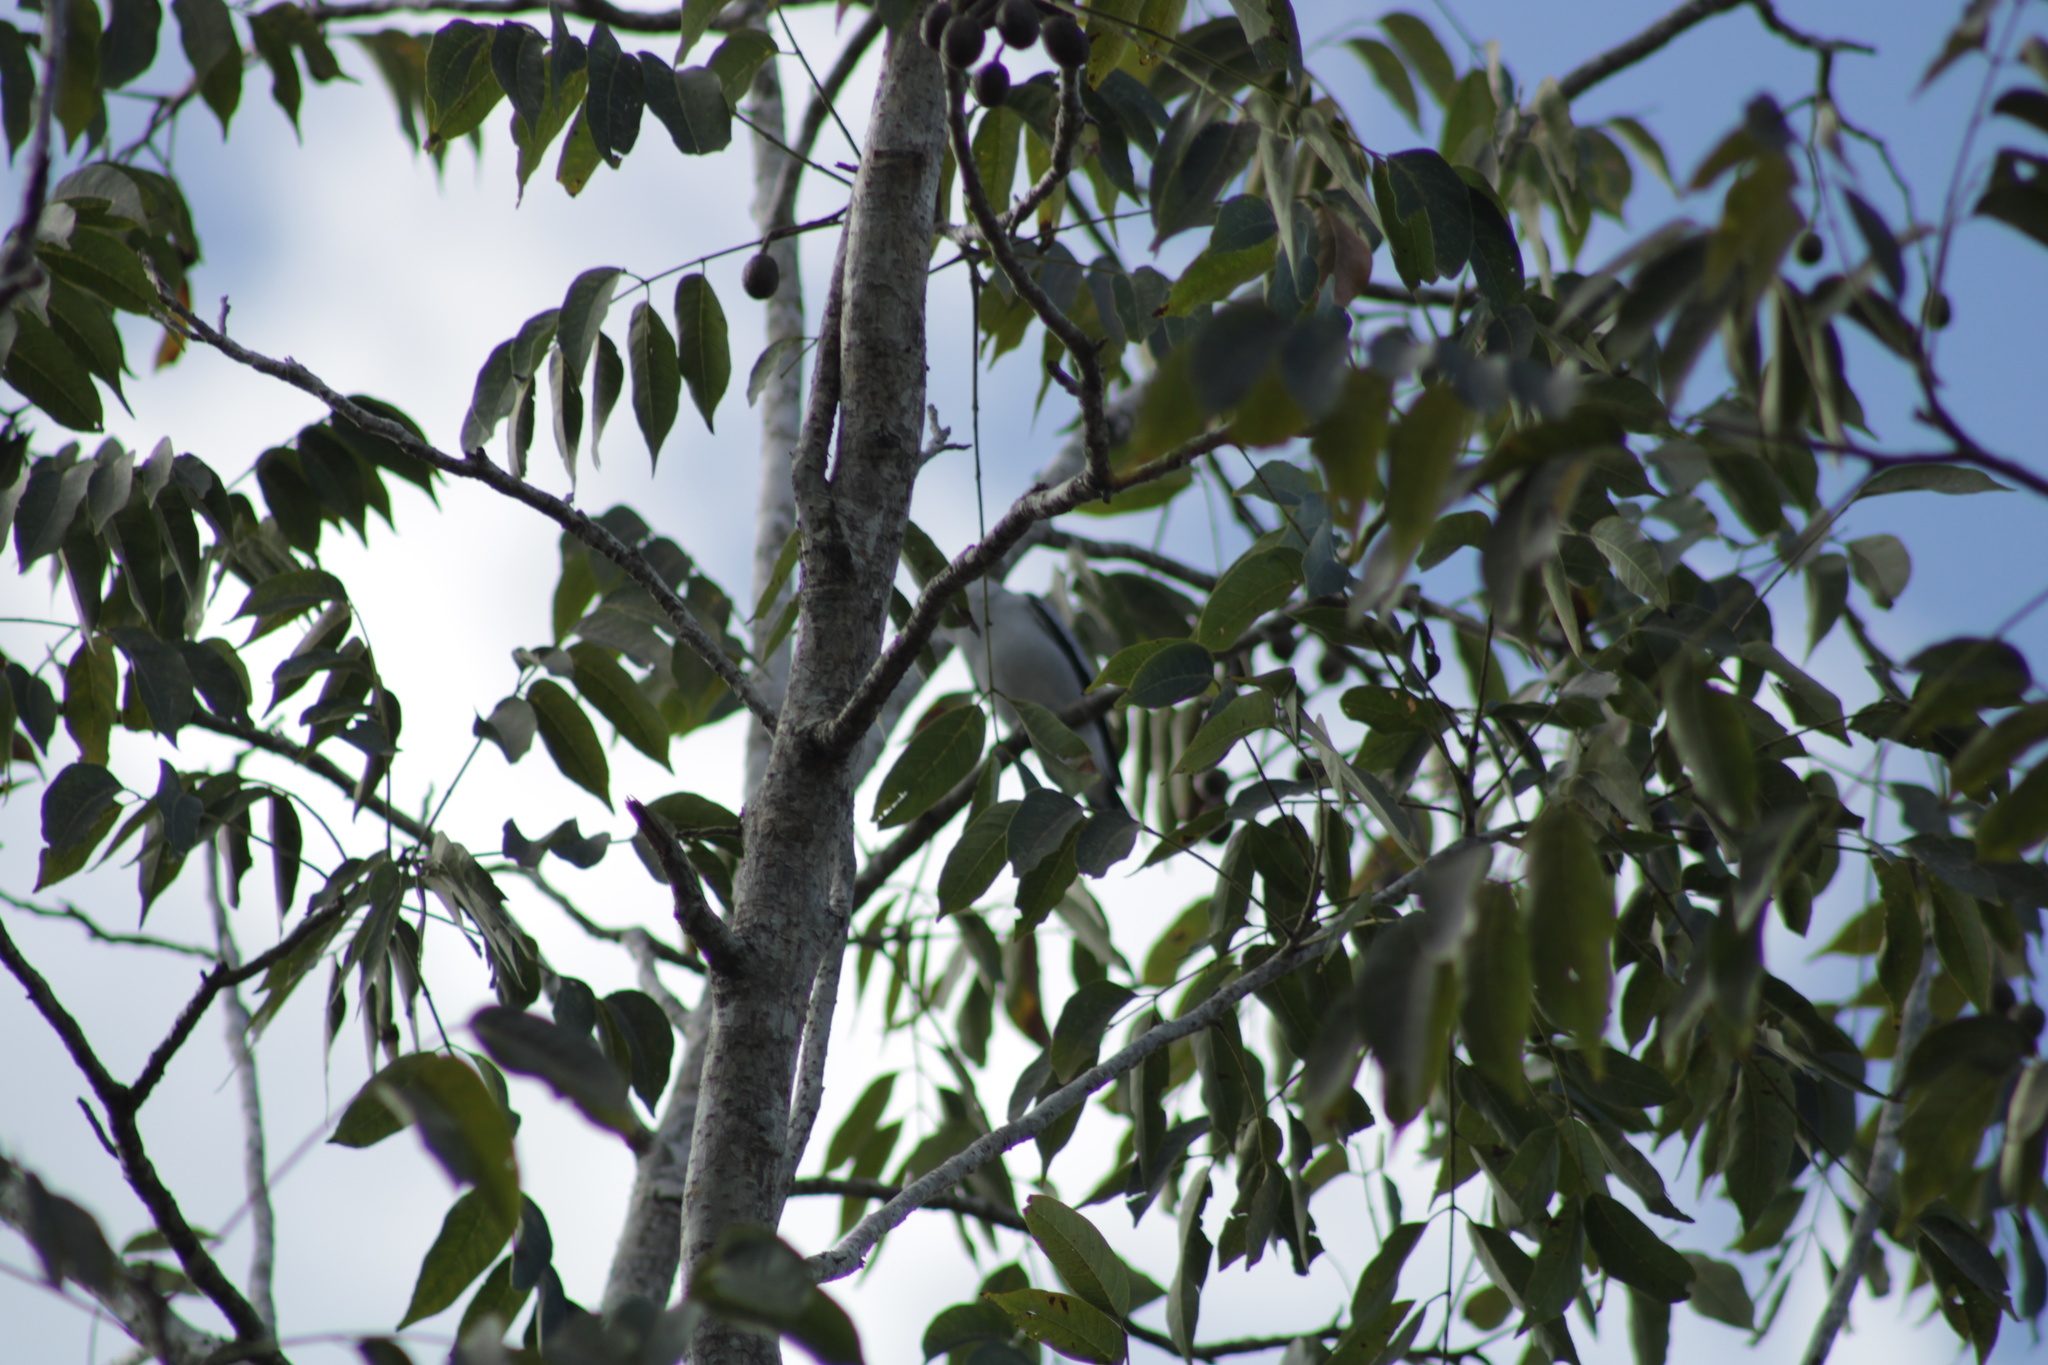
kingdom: Animalia
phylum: Chordata
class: Aves
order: Passeriformes
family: Cotingidae
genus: Tityra
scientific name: Tityra semifasciata
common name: Masked tityra
